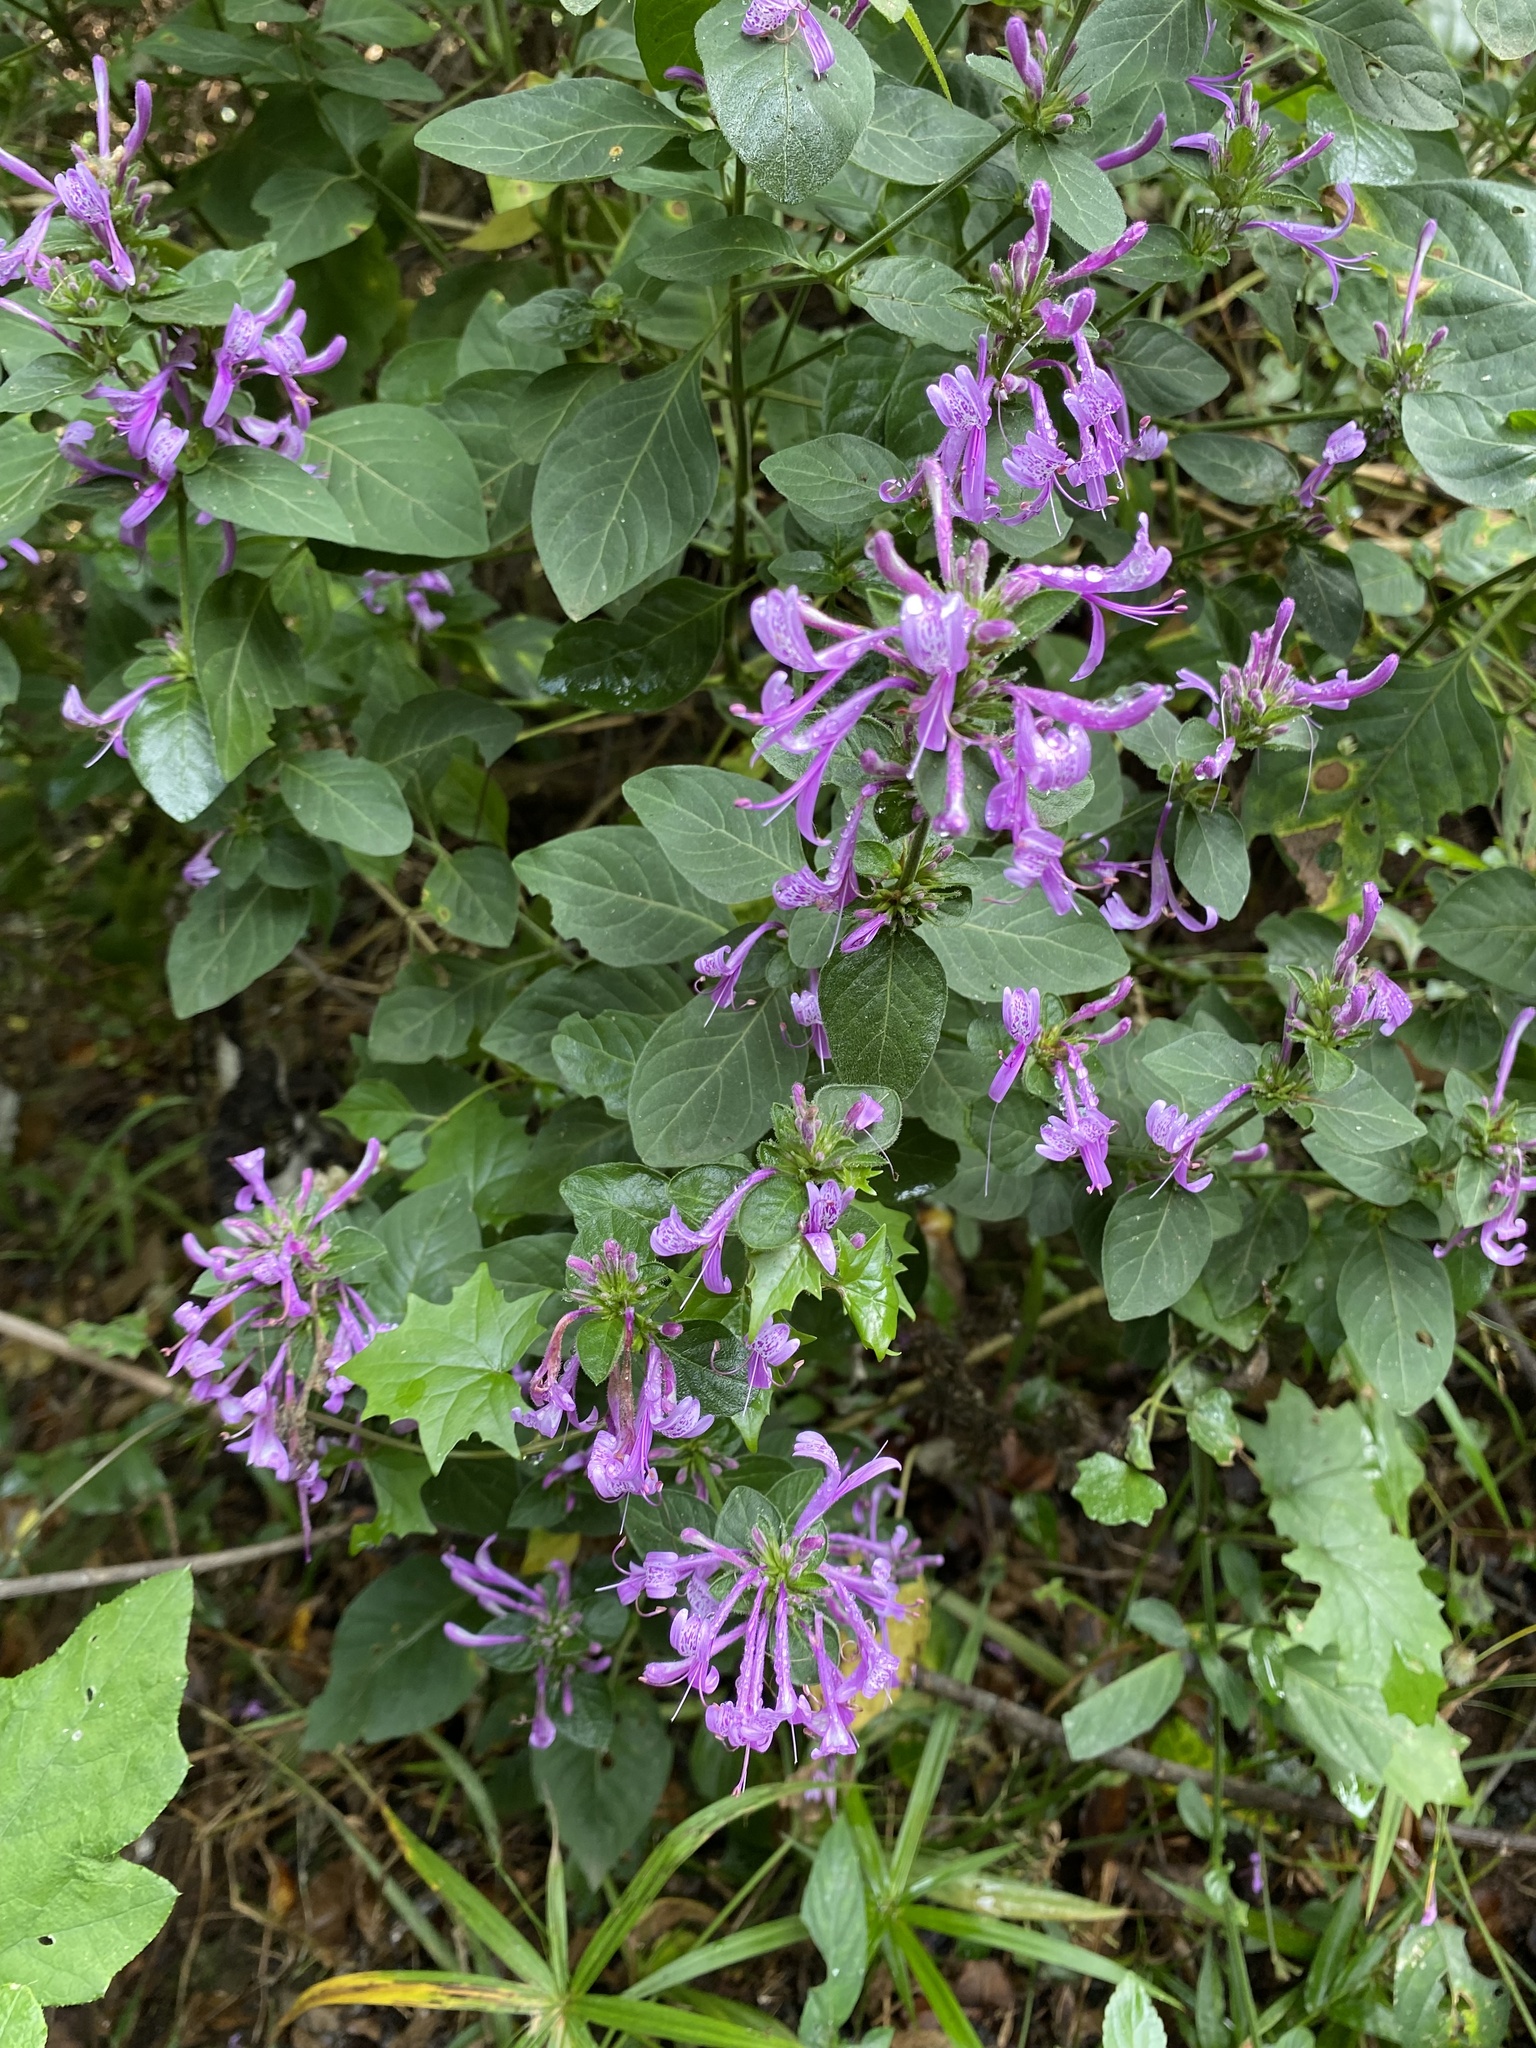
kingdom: Plantae
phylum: Tracheophyta
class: Magnoliopsida
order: Lamiales
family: Acanthaceae
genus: Hypoestes
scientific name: Hypoestes aristata
